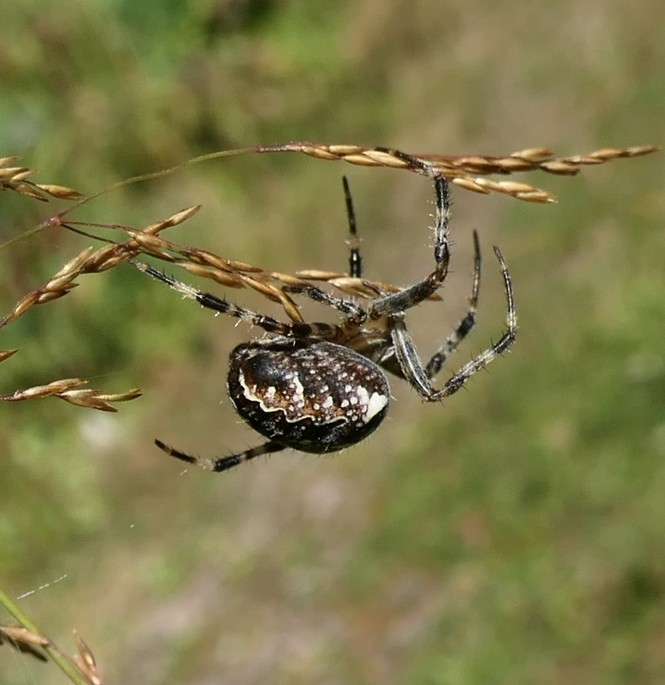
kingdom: Animalia
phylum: Arthropoda
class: Arachnida
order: Araneae
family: Araneidae
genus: Araneus
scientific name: Araneus diadematus
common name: Cross orbweaver
